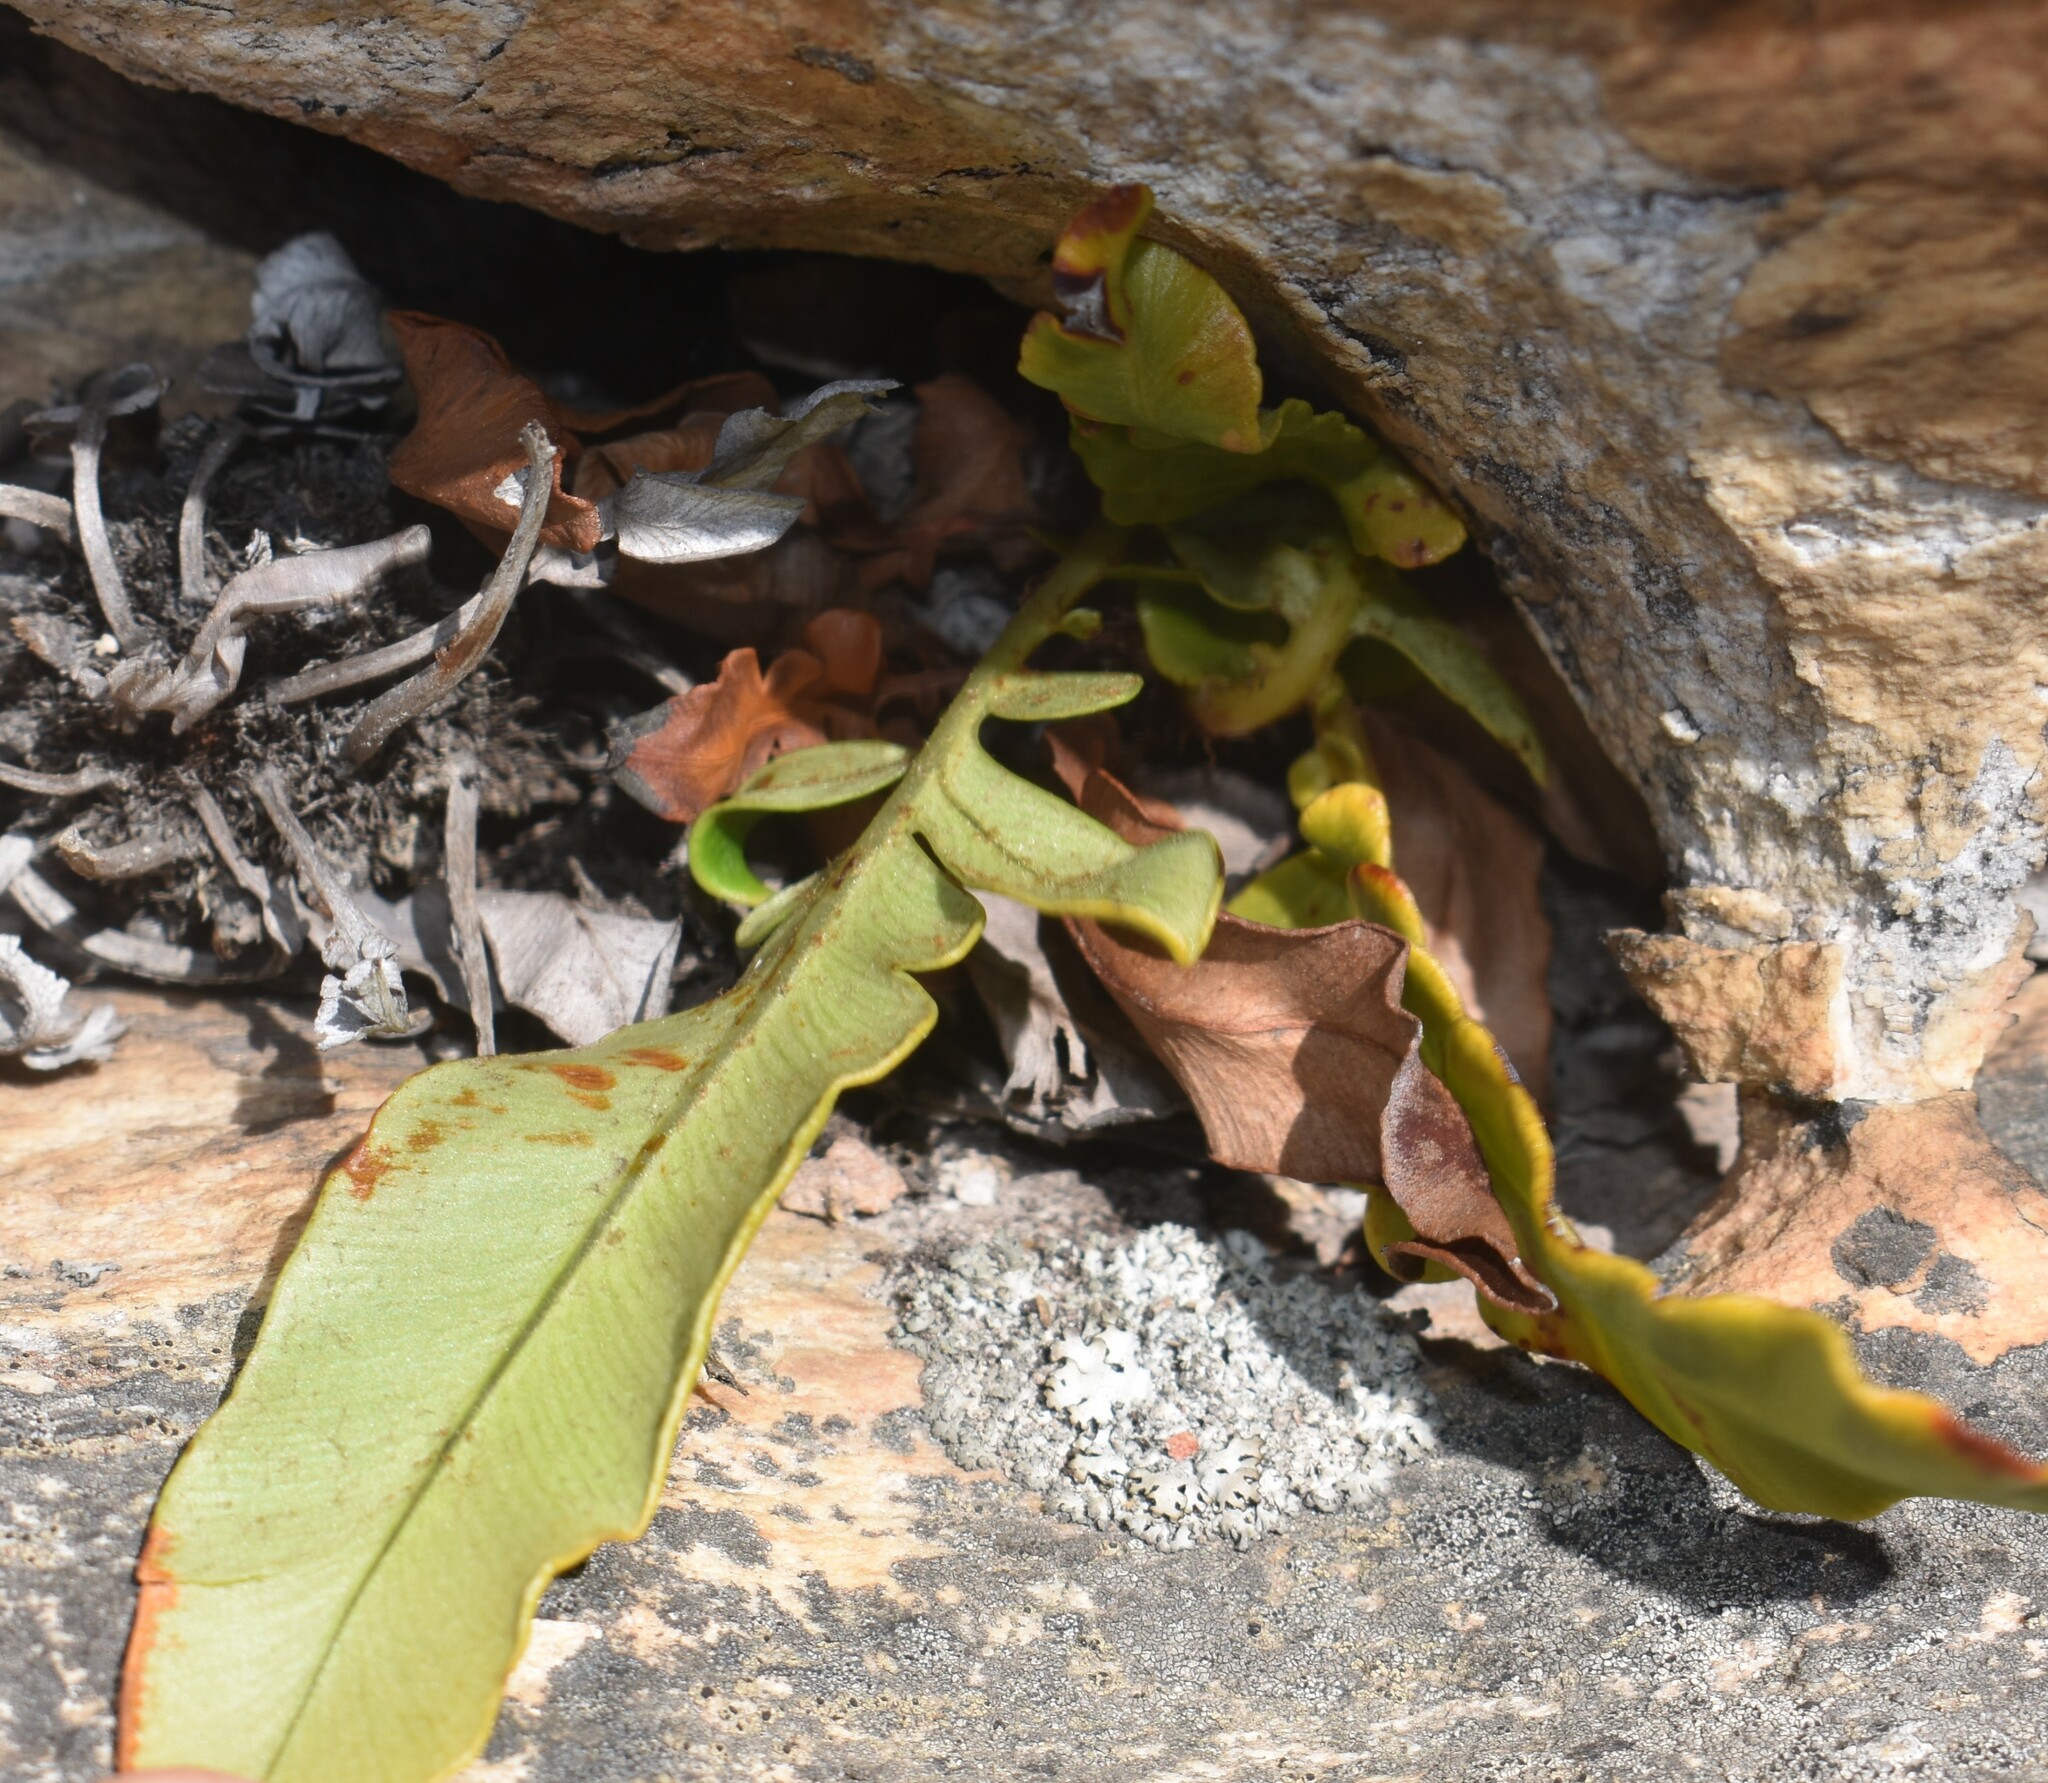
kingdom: Plantae
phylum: Tracheophyta
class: Polypodiopsida
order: Polypodiales
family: Blechnaceae
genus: Lomariocycas
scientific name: Lomariocycas tabularis
